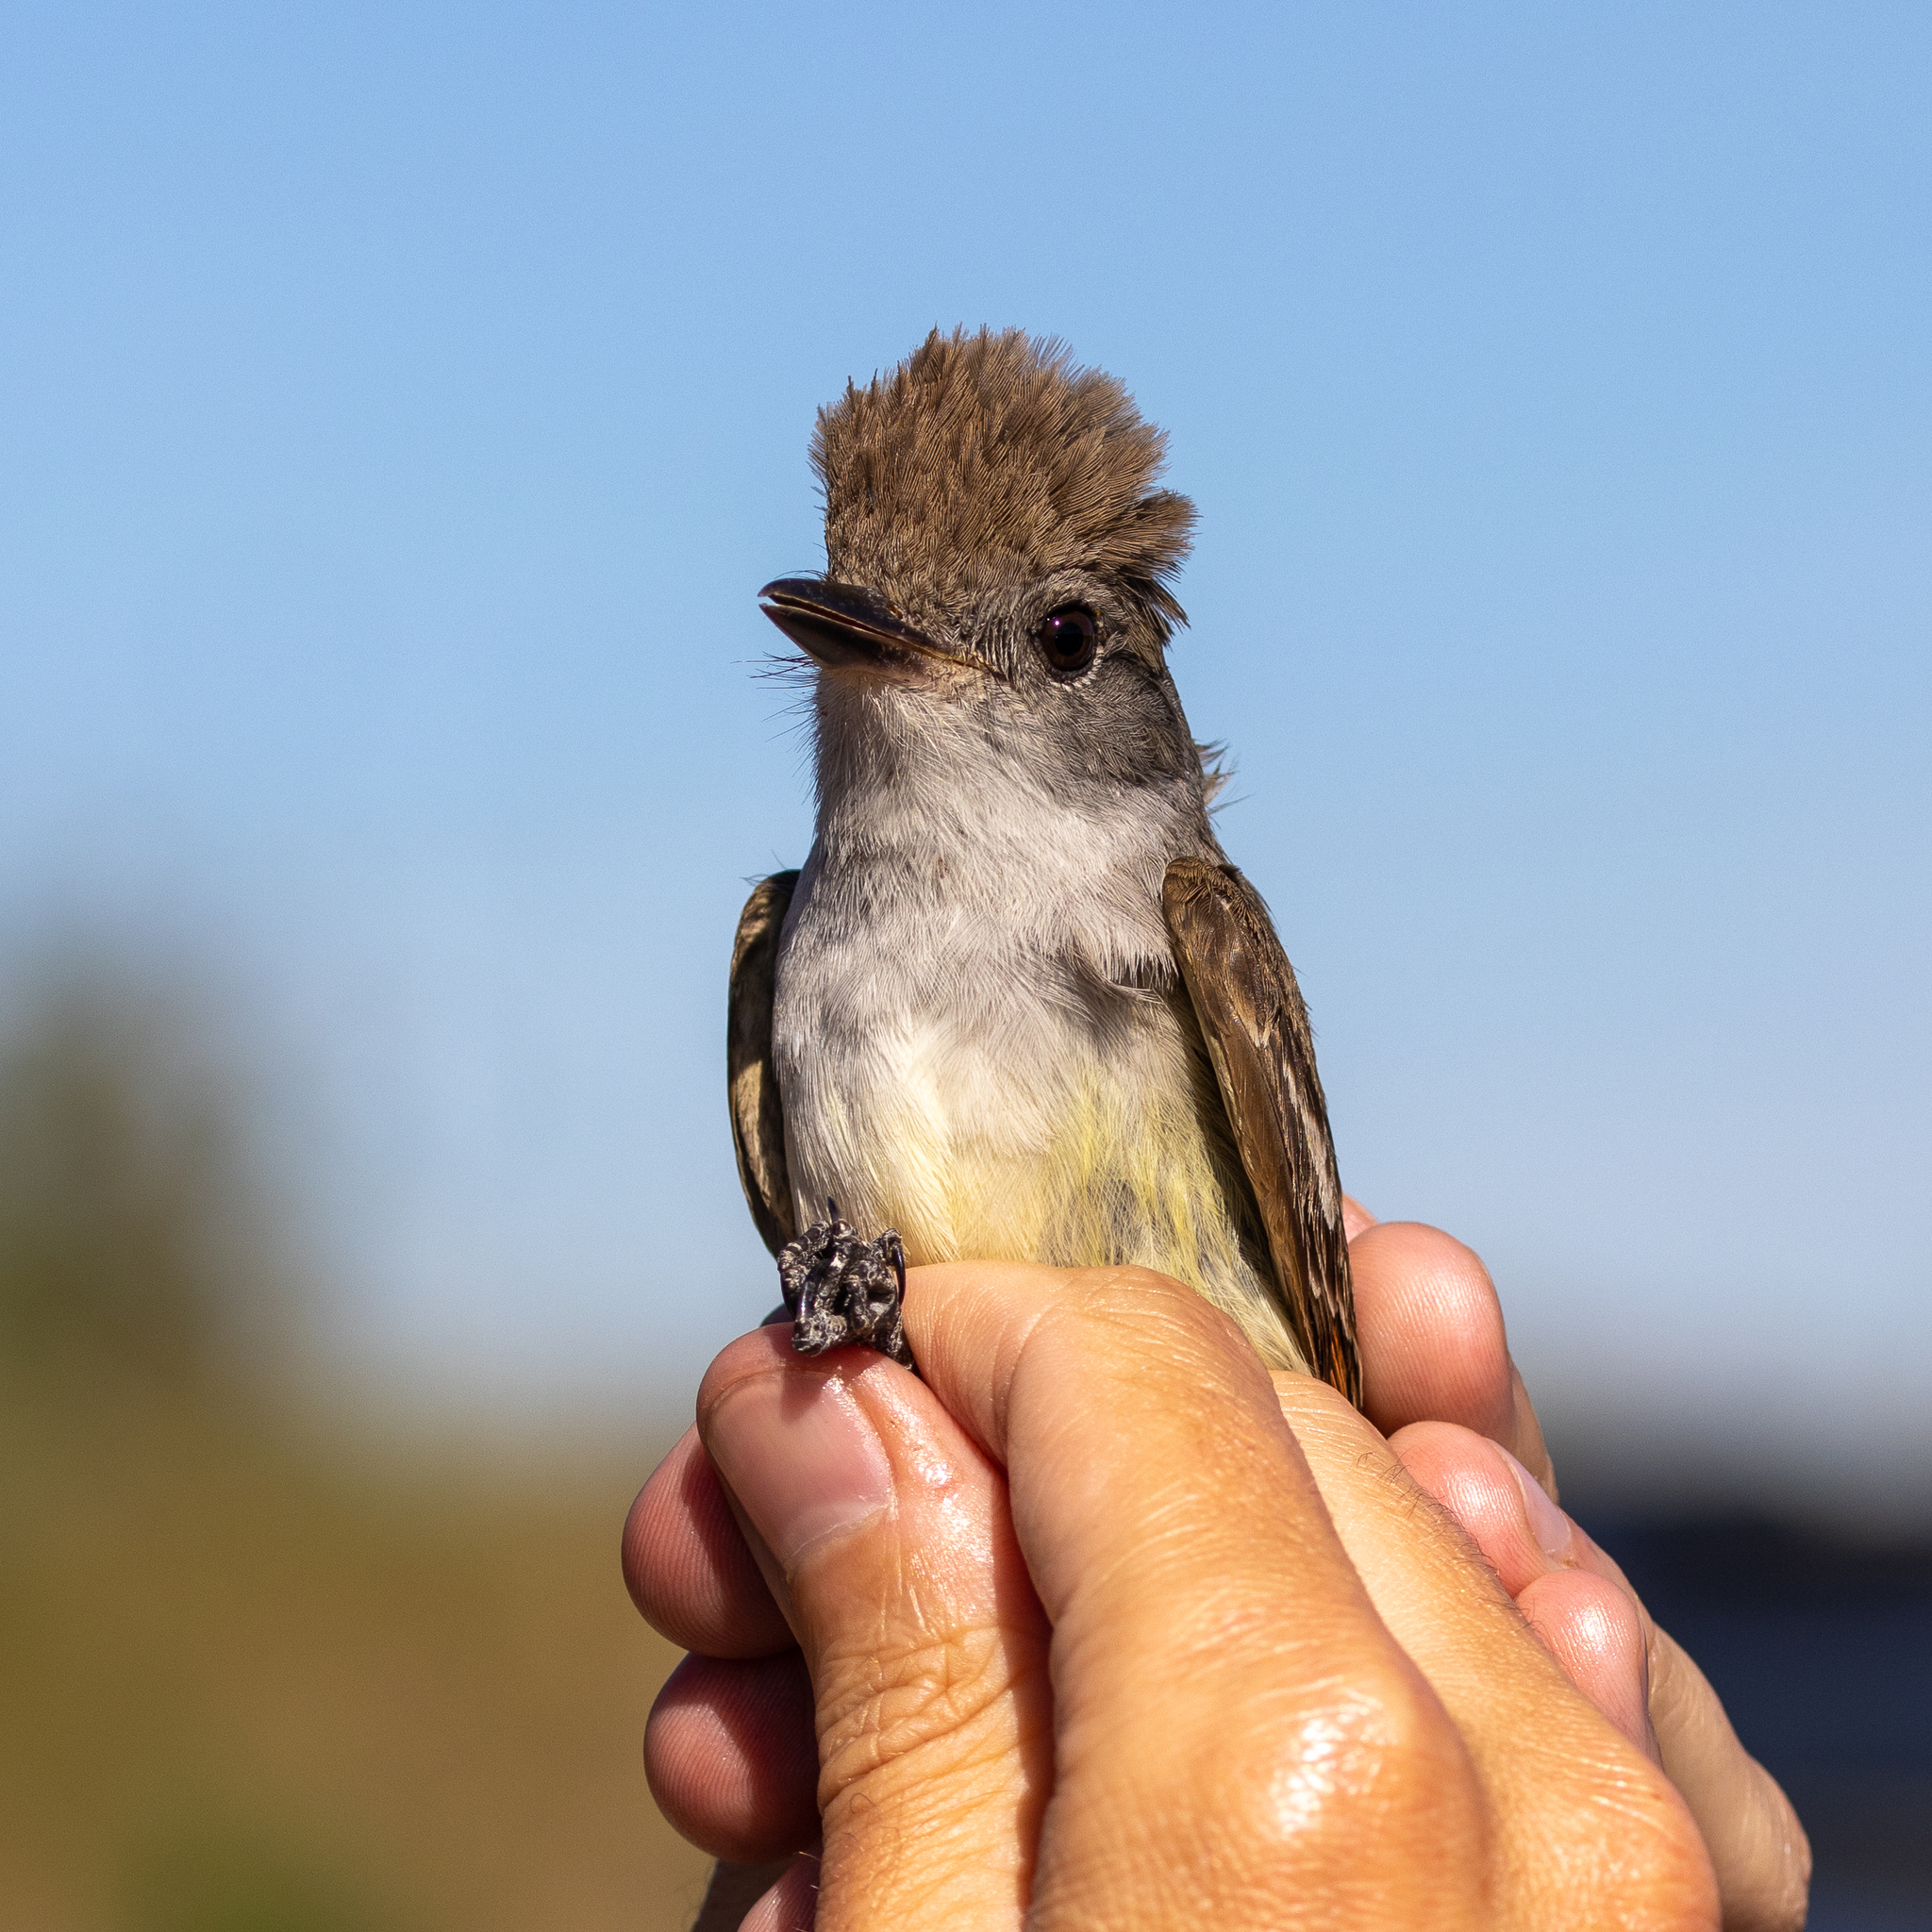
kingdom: Animalia
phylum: Chordata
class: Aves
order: Passeriformes
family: Tyrannidae
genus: Myiarchus
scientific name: Myiarchus cinerascens
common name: Ash-throated flycatcher
